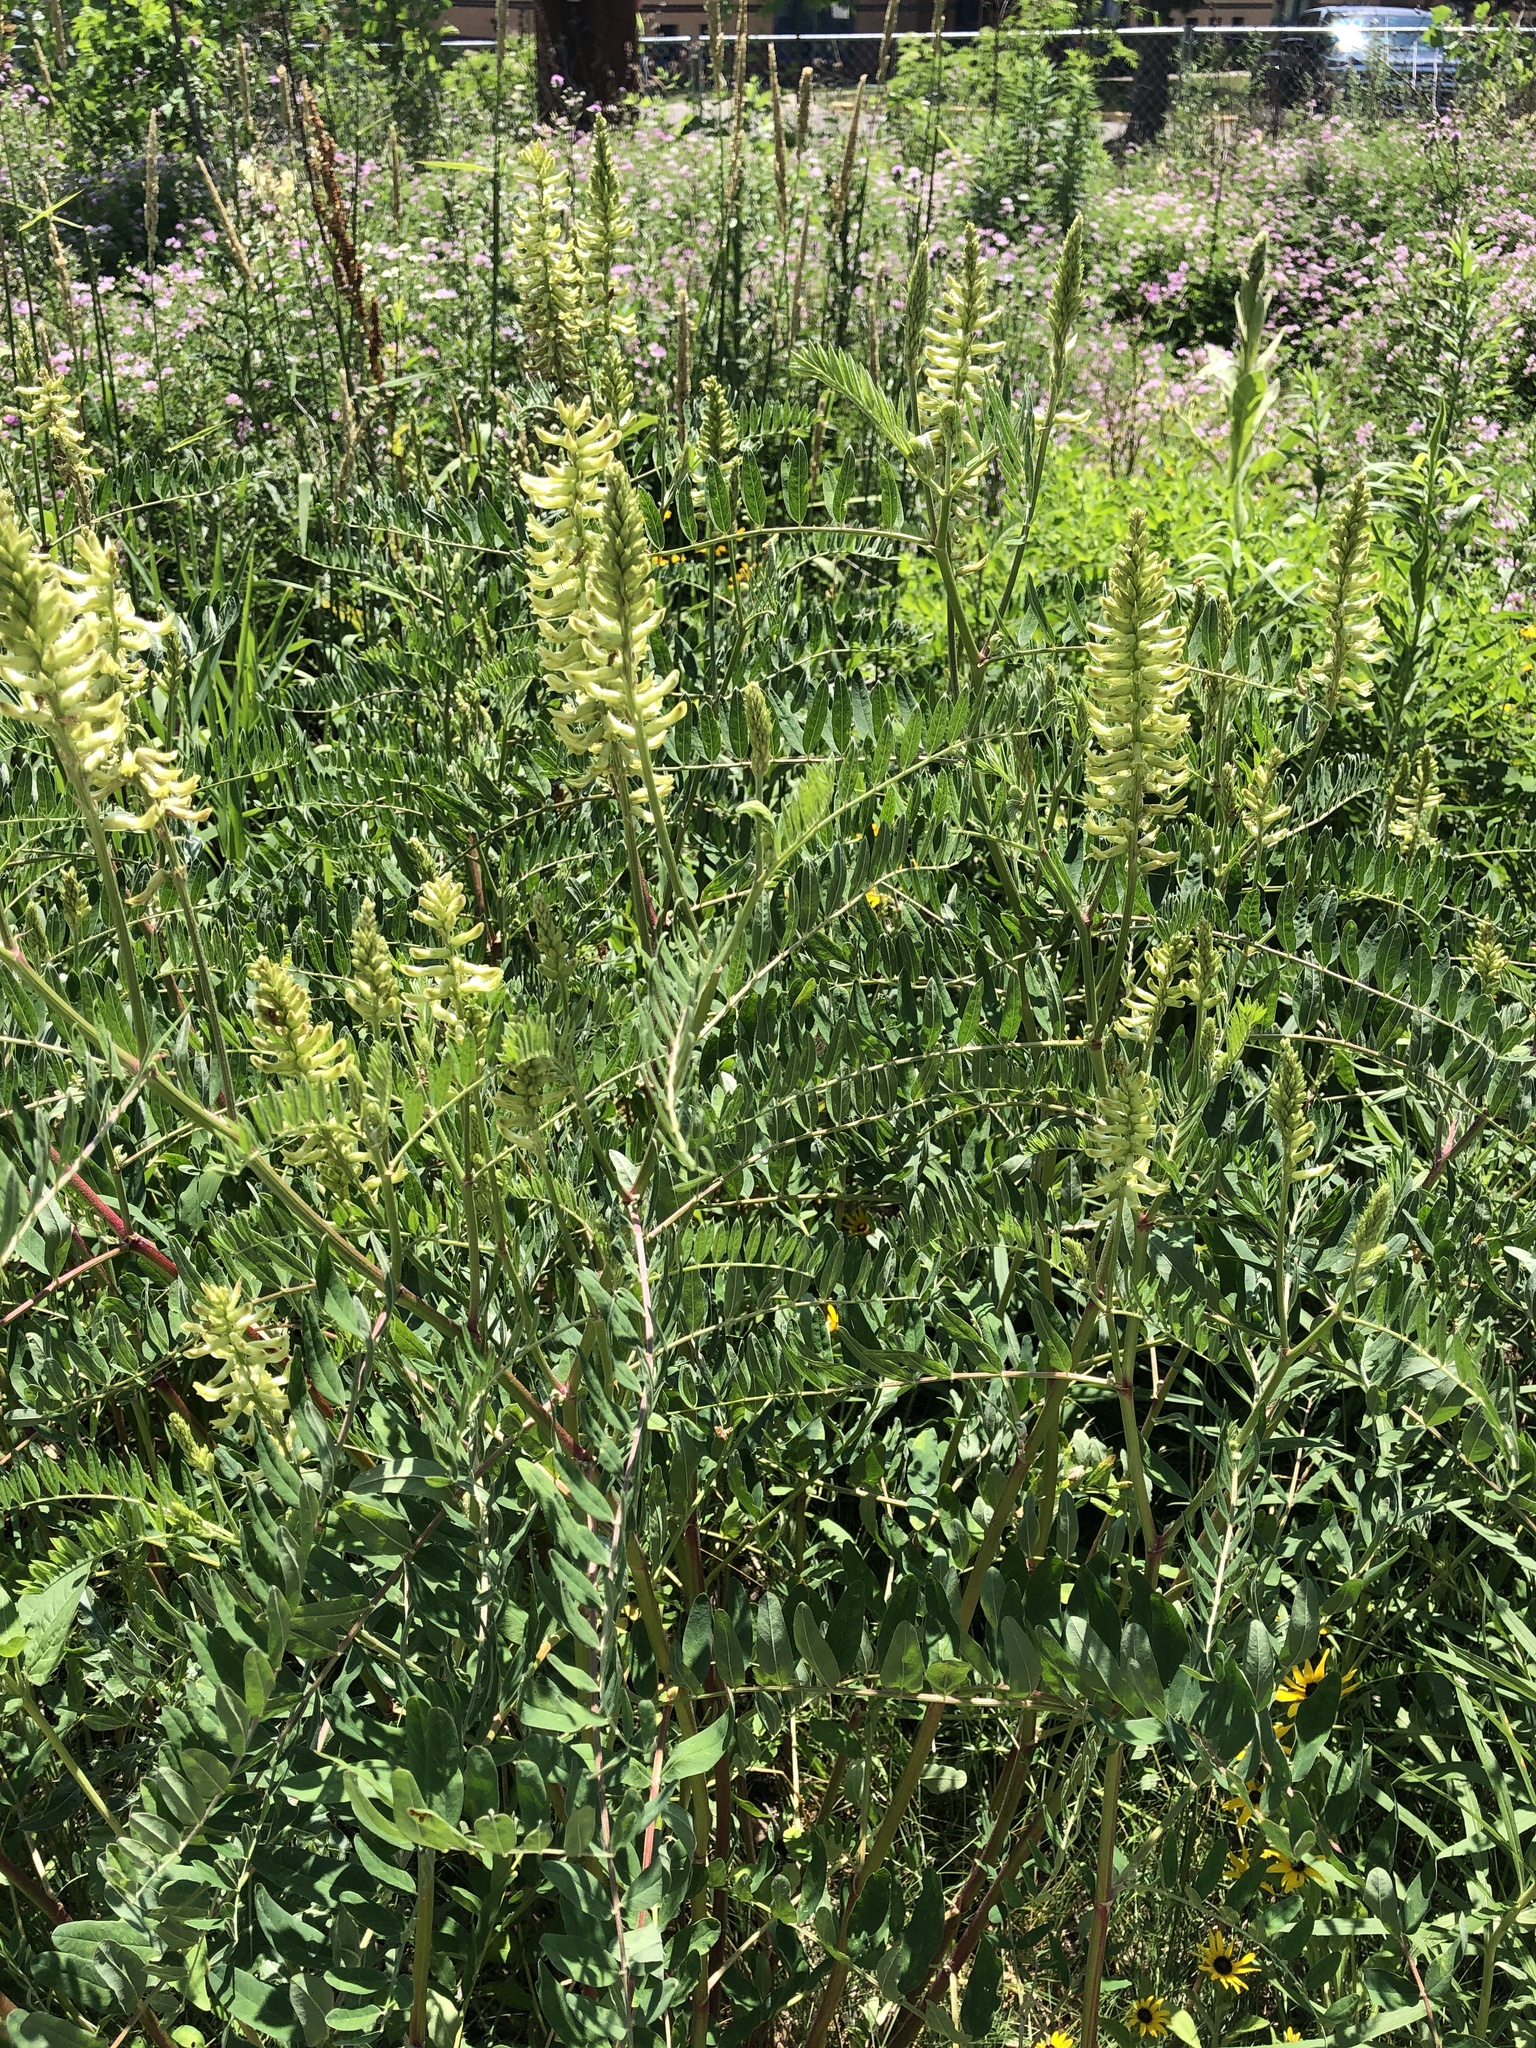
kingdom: Plantae
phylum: Tracheophyta
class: Magnoliopsida
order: Fabales
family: Fabaceae
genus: Astragalus
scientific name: Astragalus canadensis
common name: Canada milk-vetch
